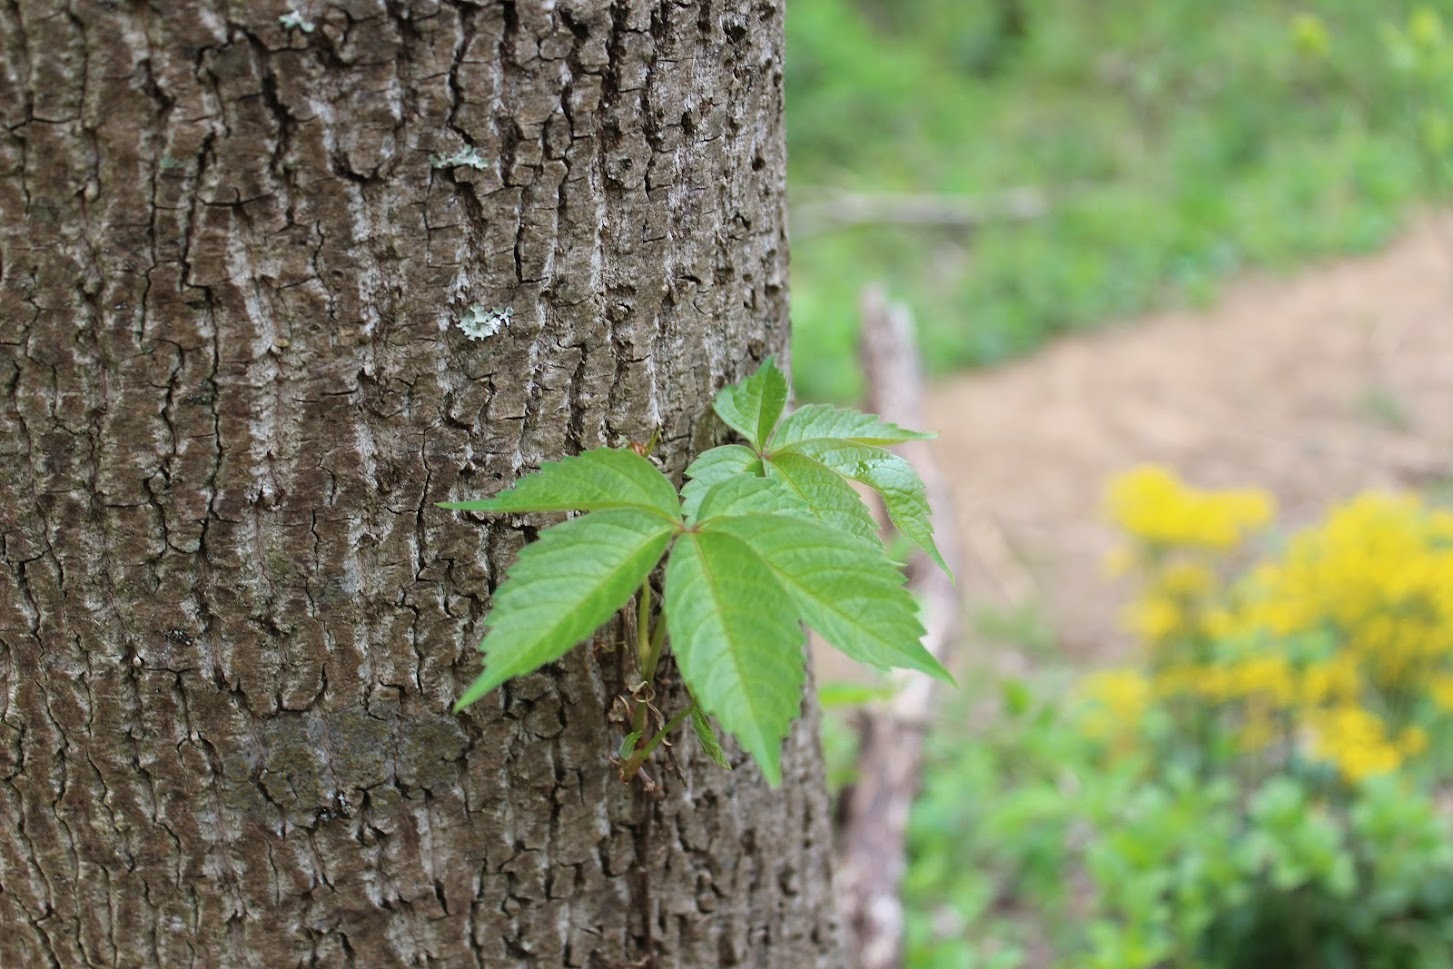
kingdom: Plantae
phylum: Tracheophyta
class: Magnoliopsida
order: Vitales
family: Vitaceae
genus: Parthenocissus
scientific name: Parthenocissus quinquefolia
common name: Virginia-creeper
